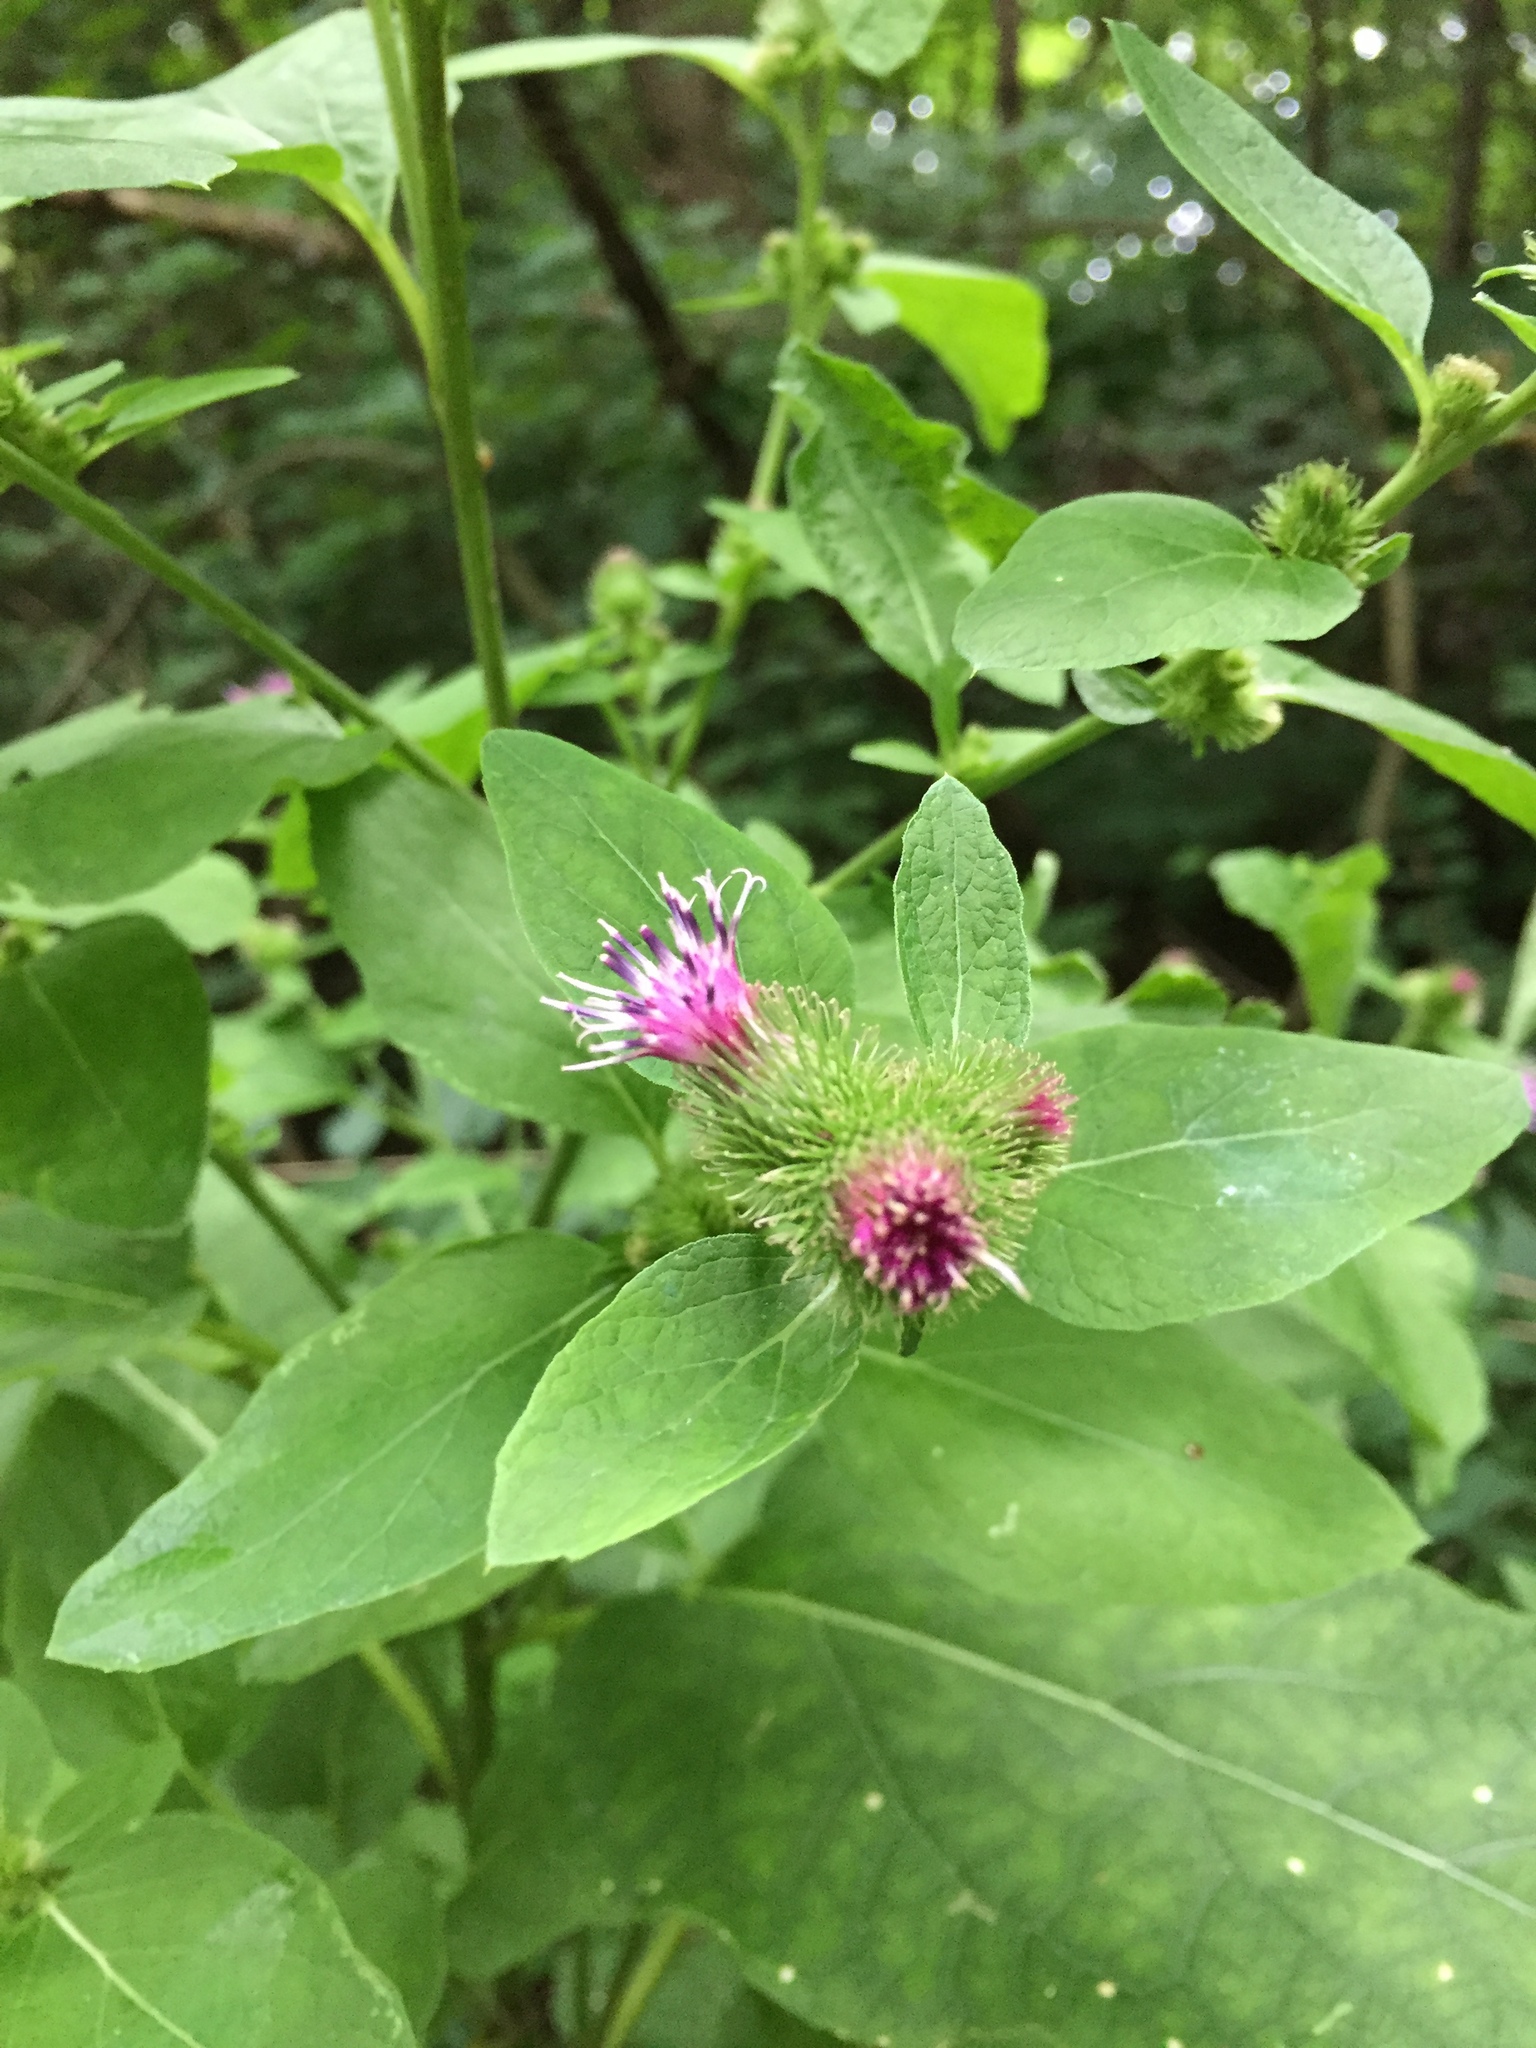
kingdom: Plantae
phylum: Tracheophyta
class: Magnoliopsida
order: Asterales
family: Asteraceae
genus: Arctium
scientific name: Arctium minus
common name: Lesser burdock
